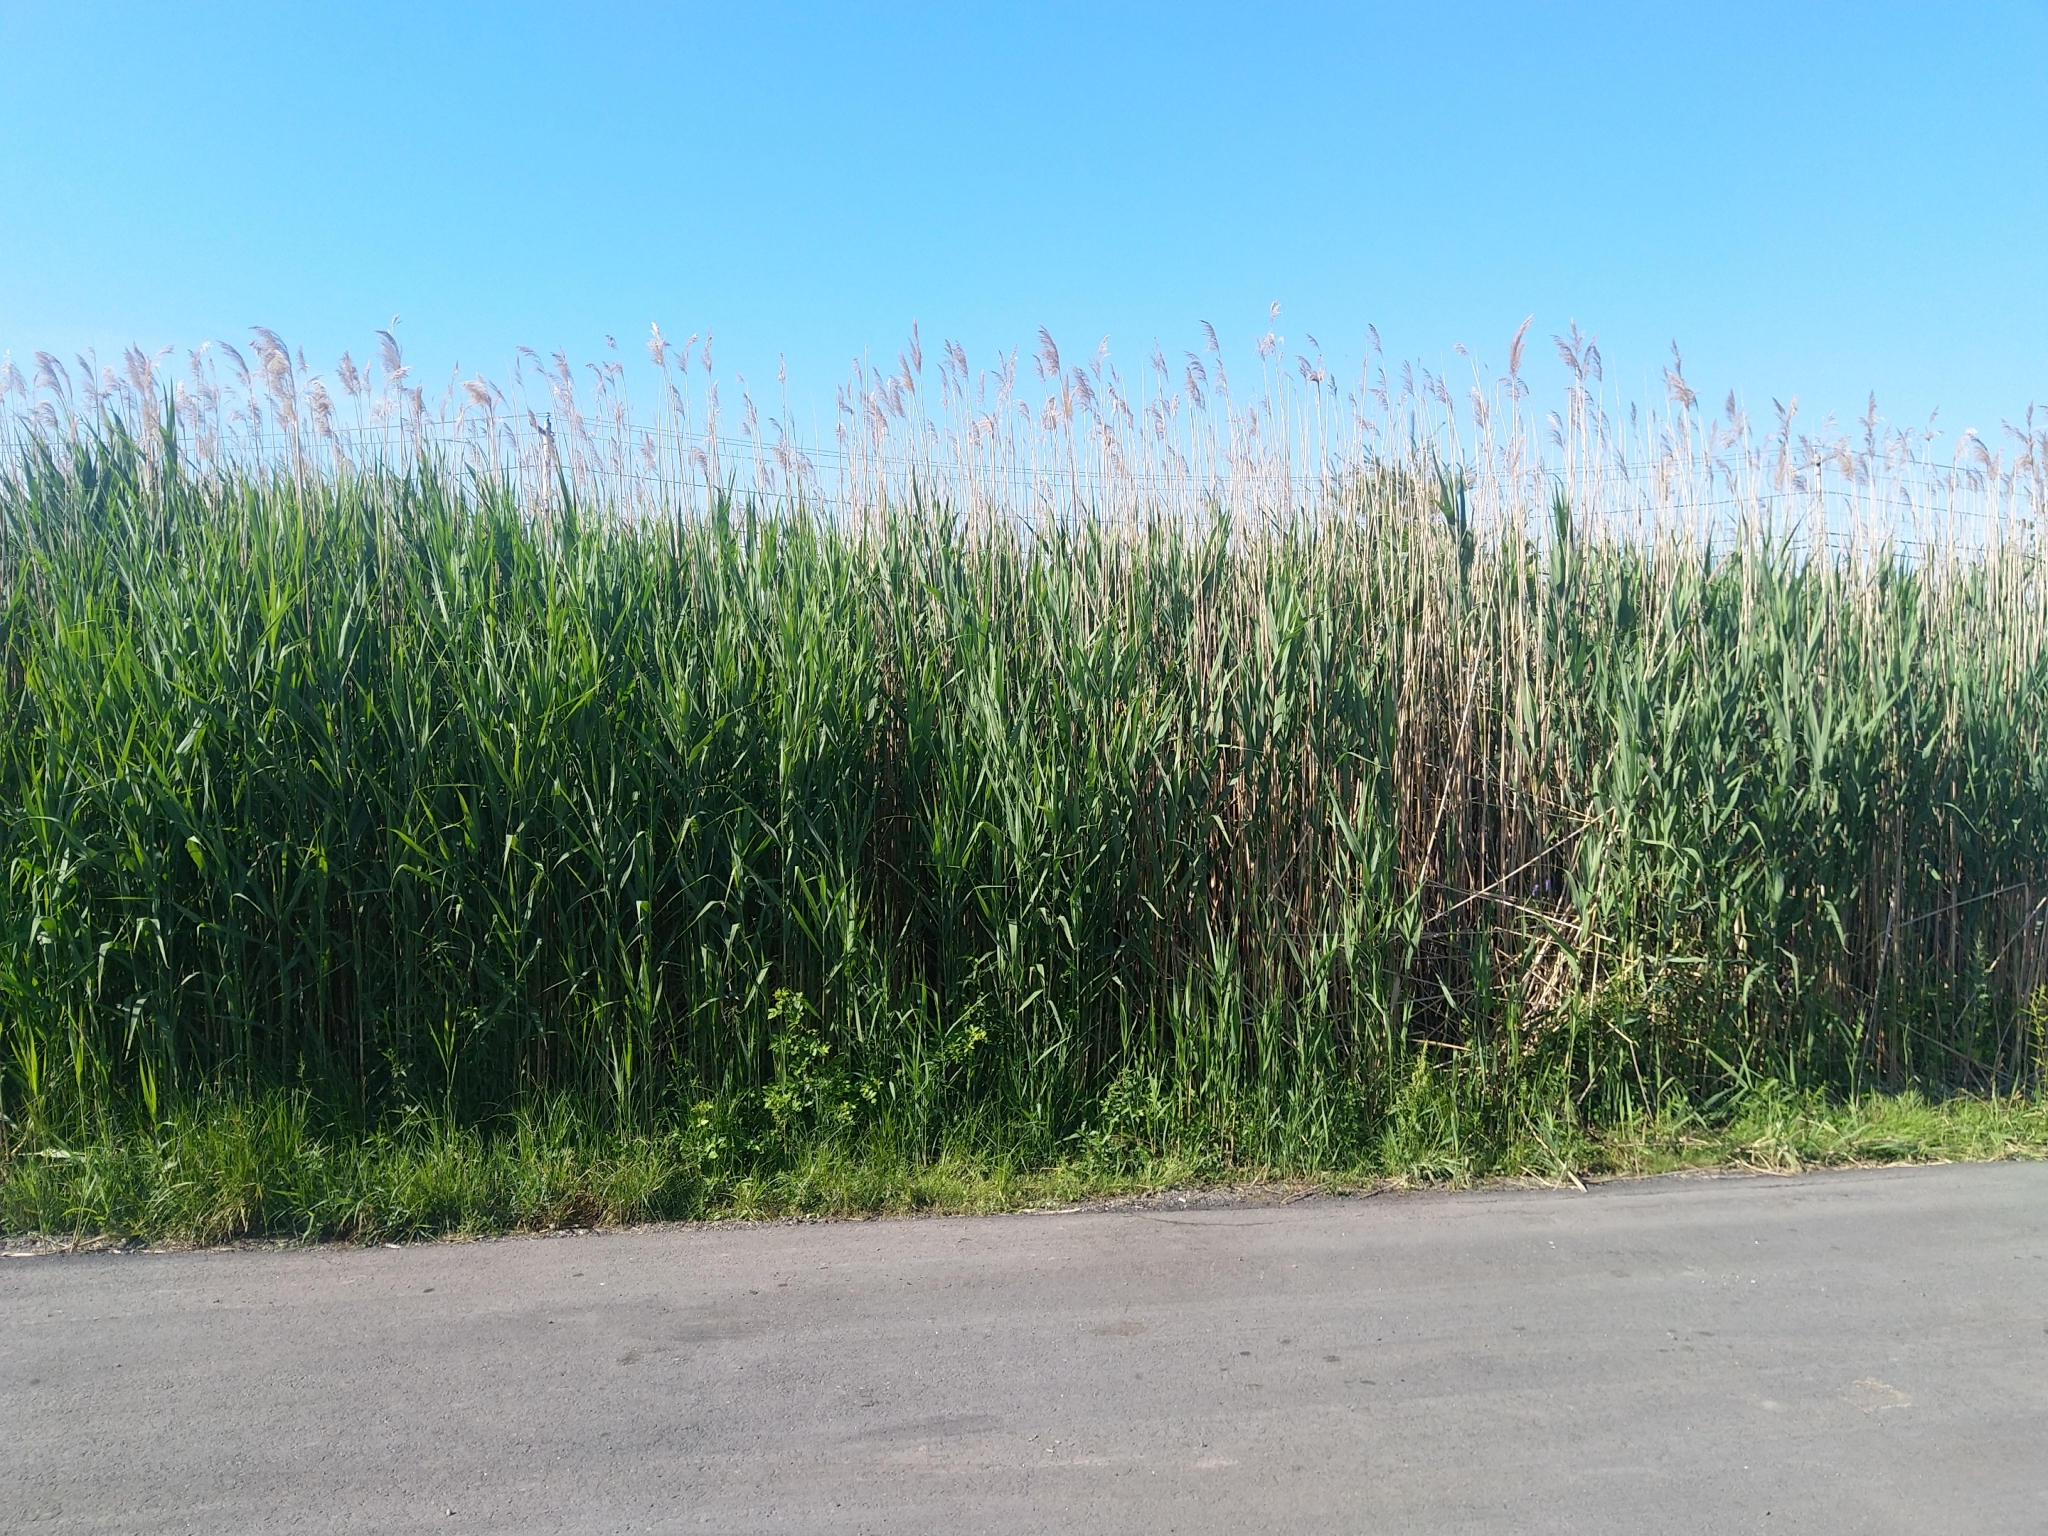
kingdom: Plantae
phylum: Tracheophyta
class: Liliopsida
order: Poales
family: Poaceae
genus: Phragmites
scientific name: Phragmites australis
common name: Common reed
